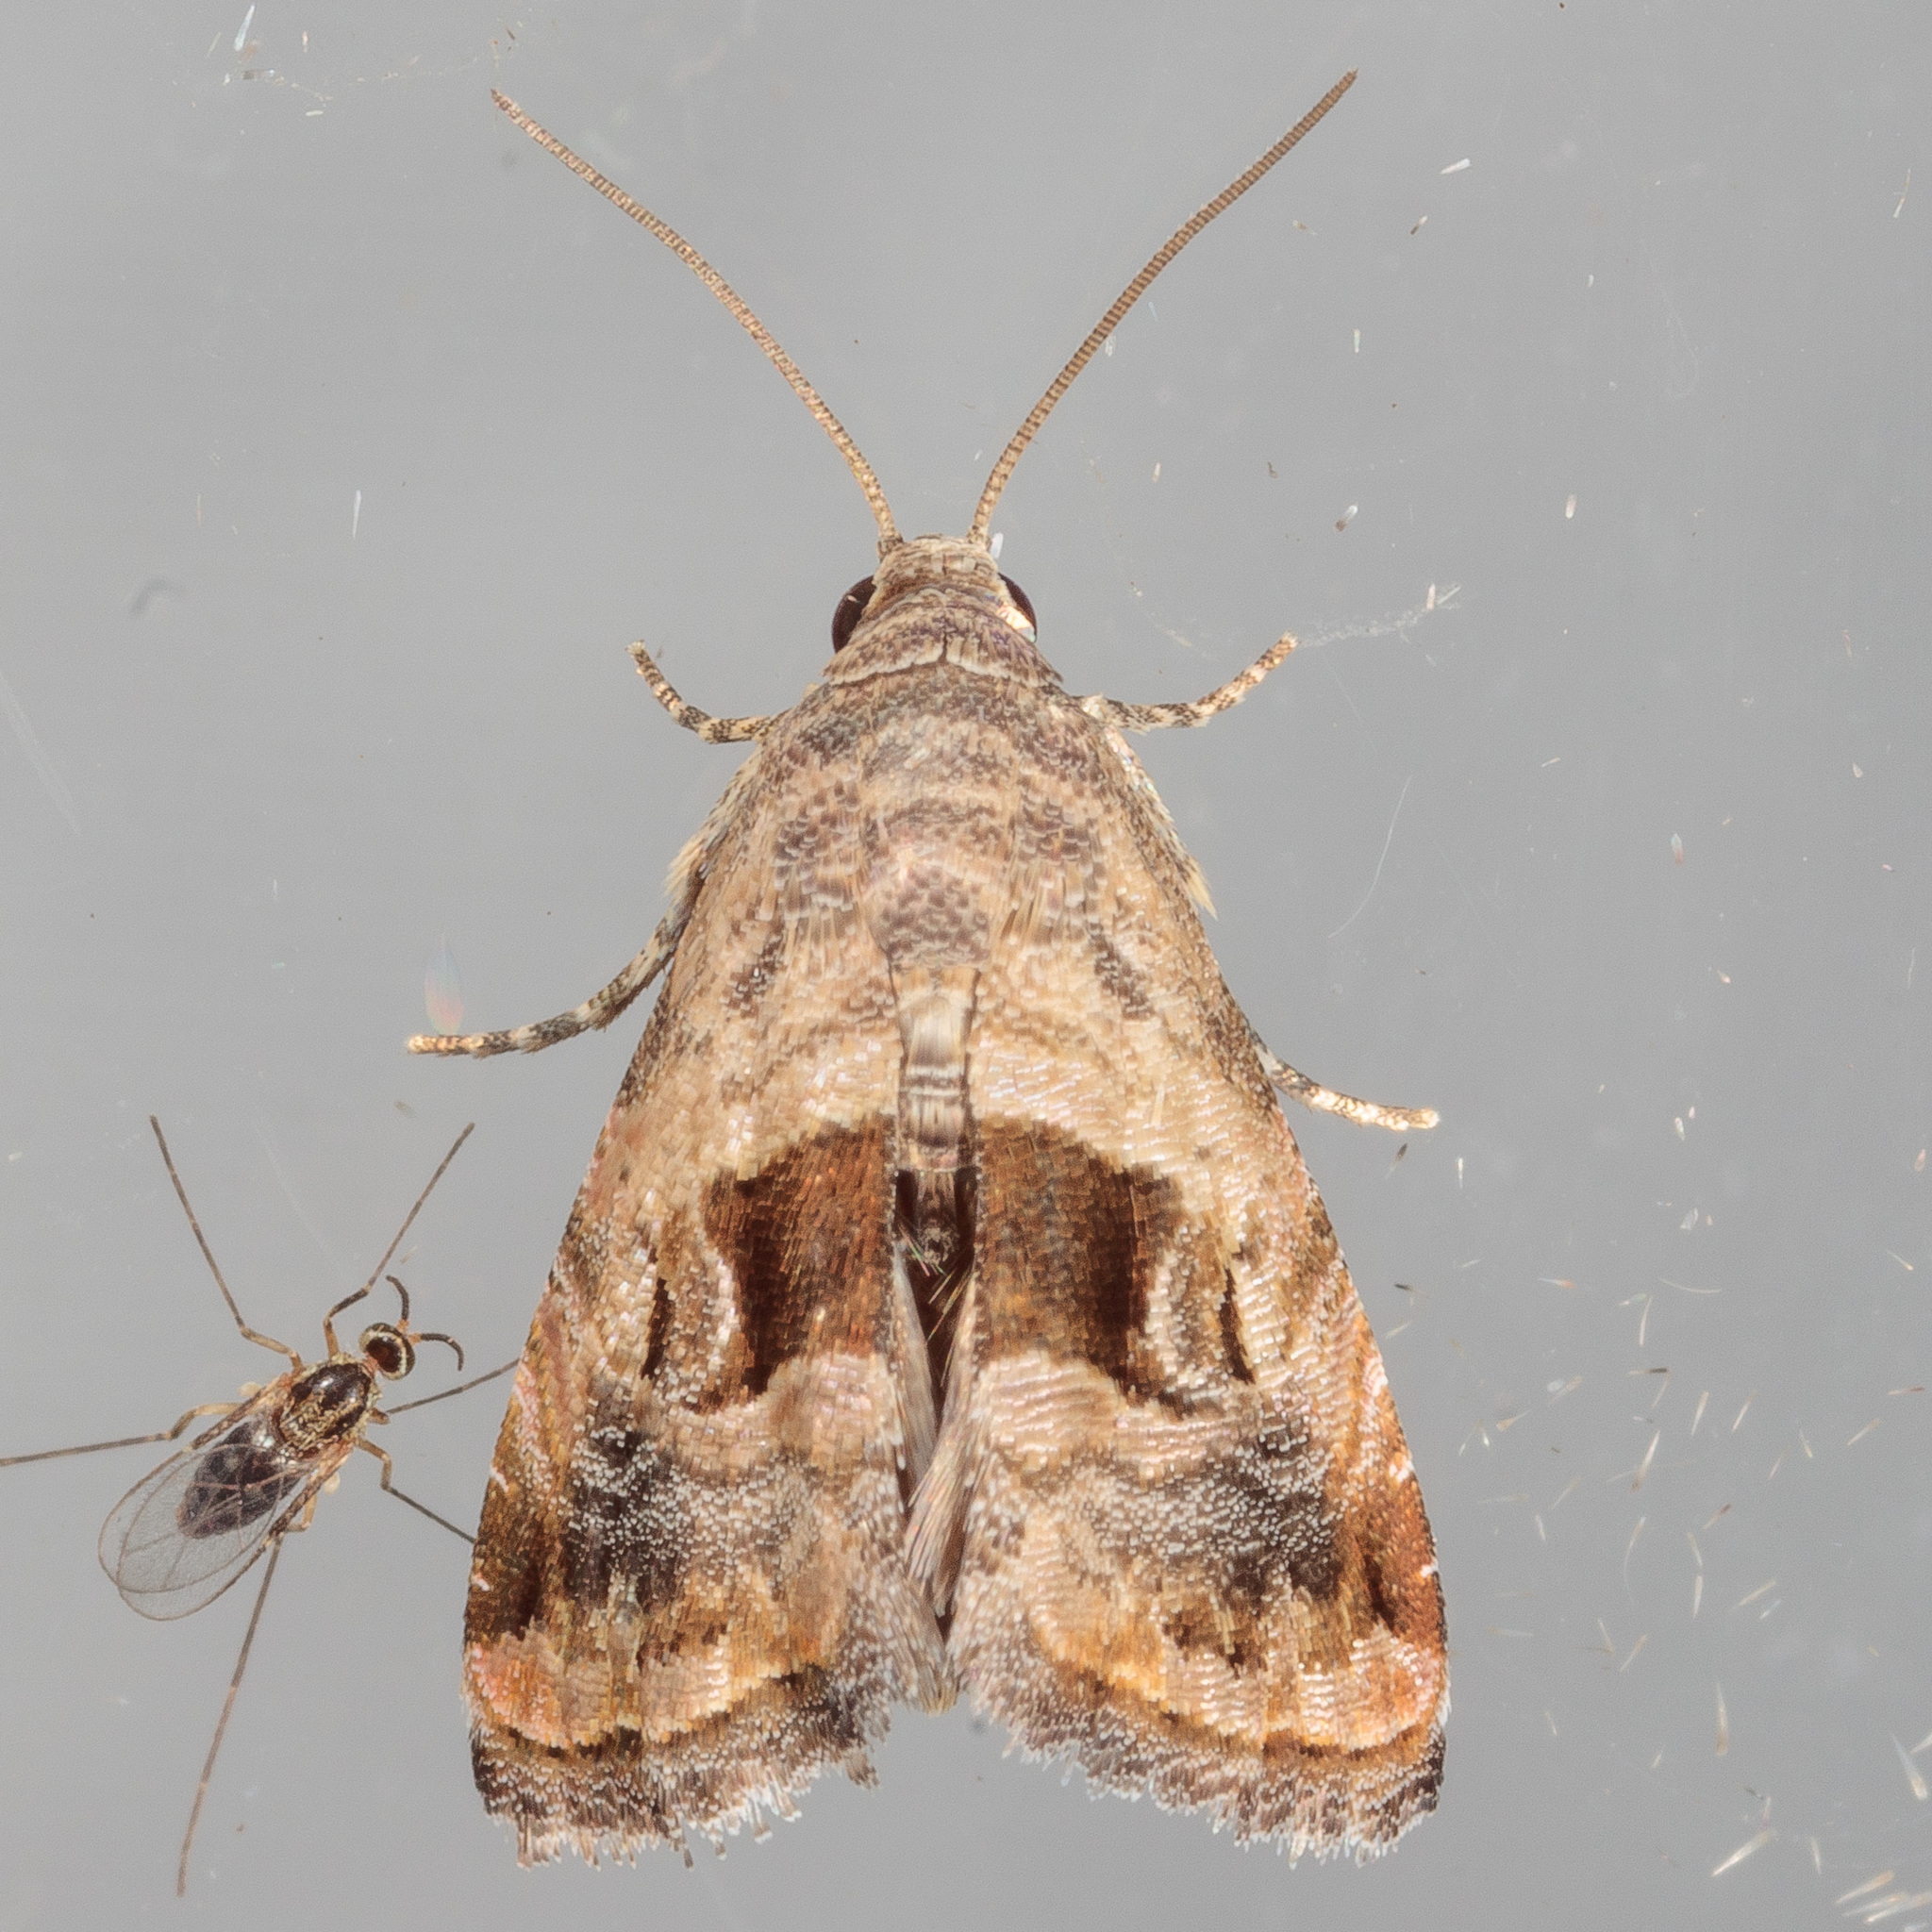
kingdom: Animalia
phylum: Arthropoda
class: Insecta
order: Lepidoptera
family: Noctuidae
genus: Tripudia
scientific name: Tripudia quadrifera
